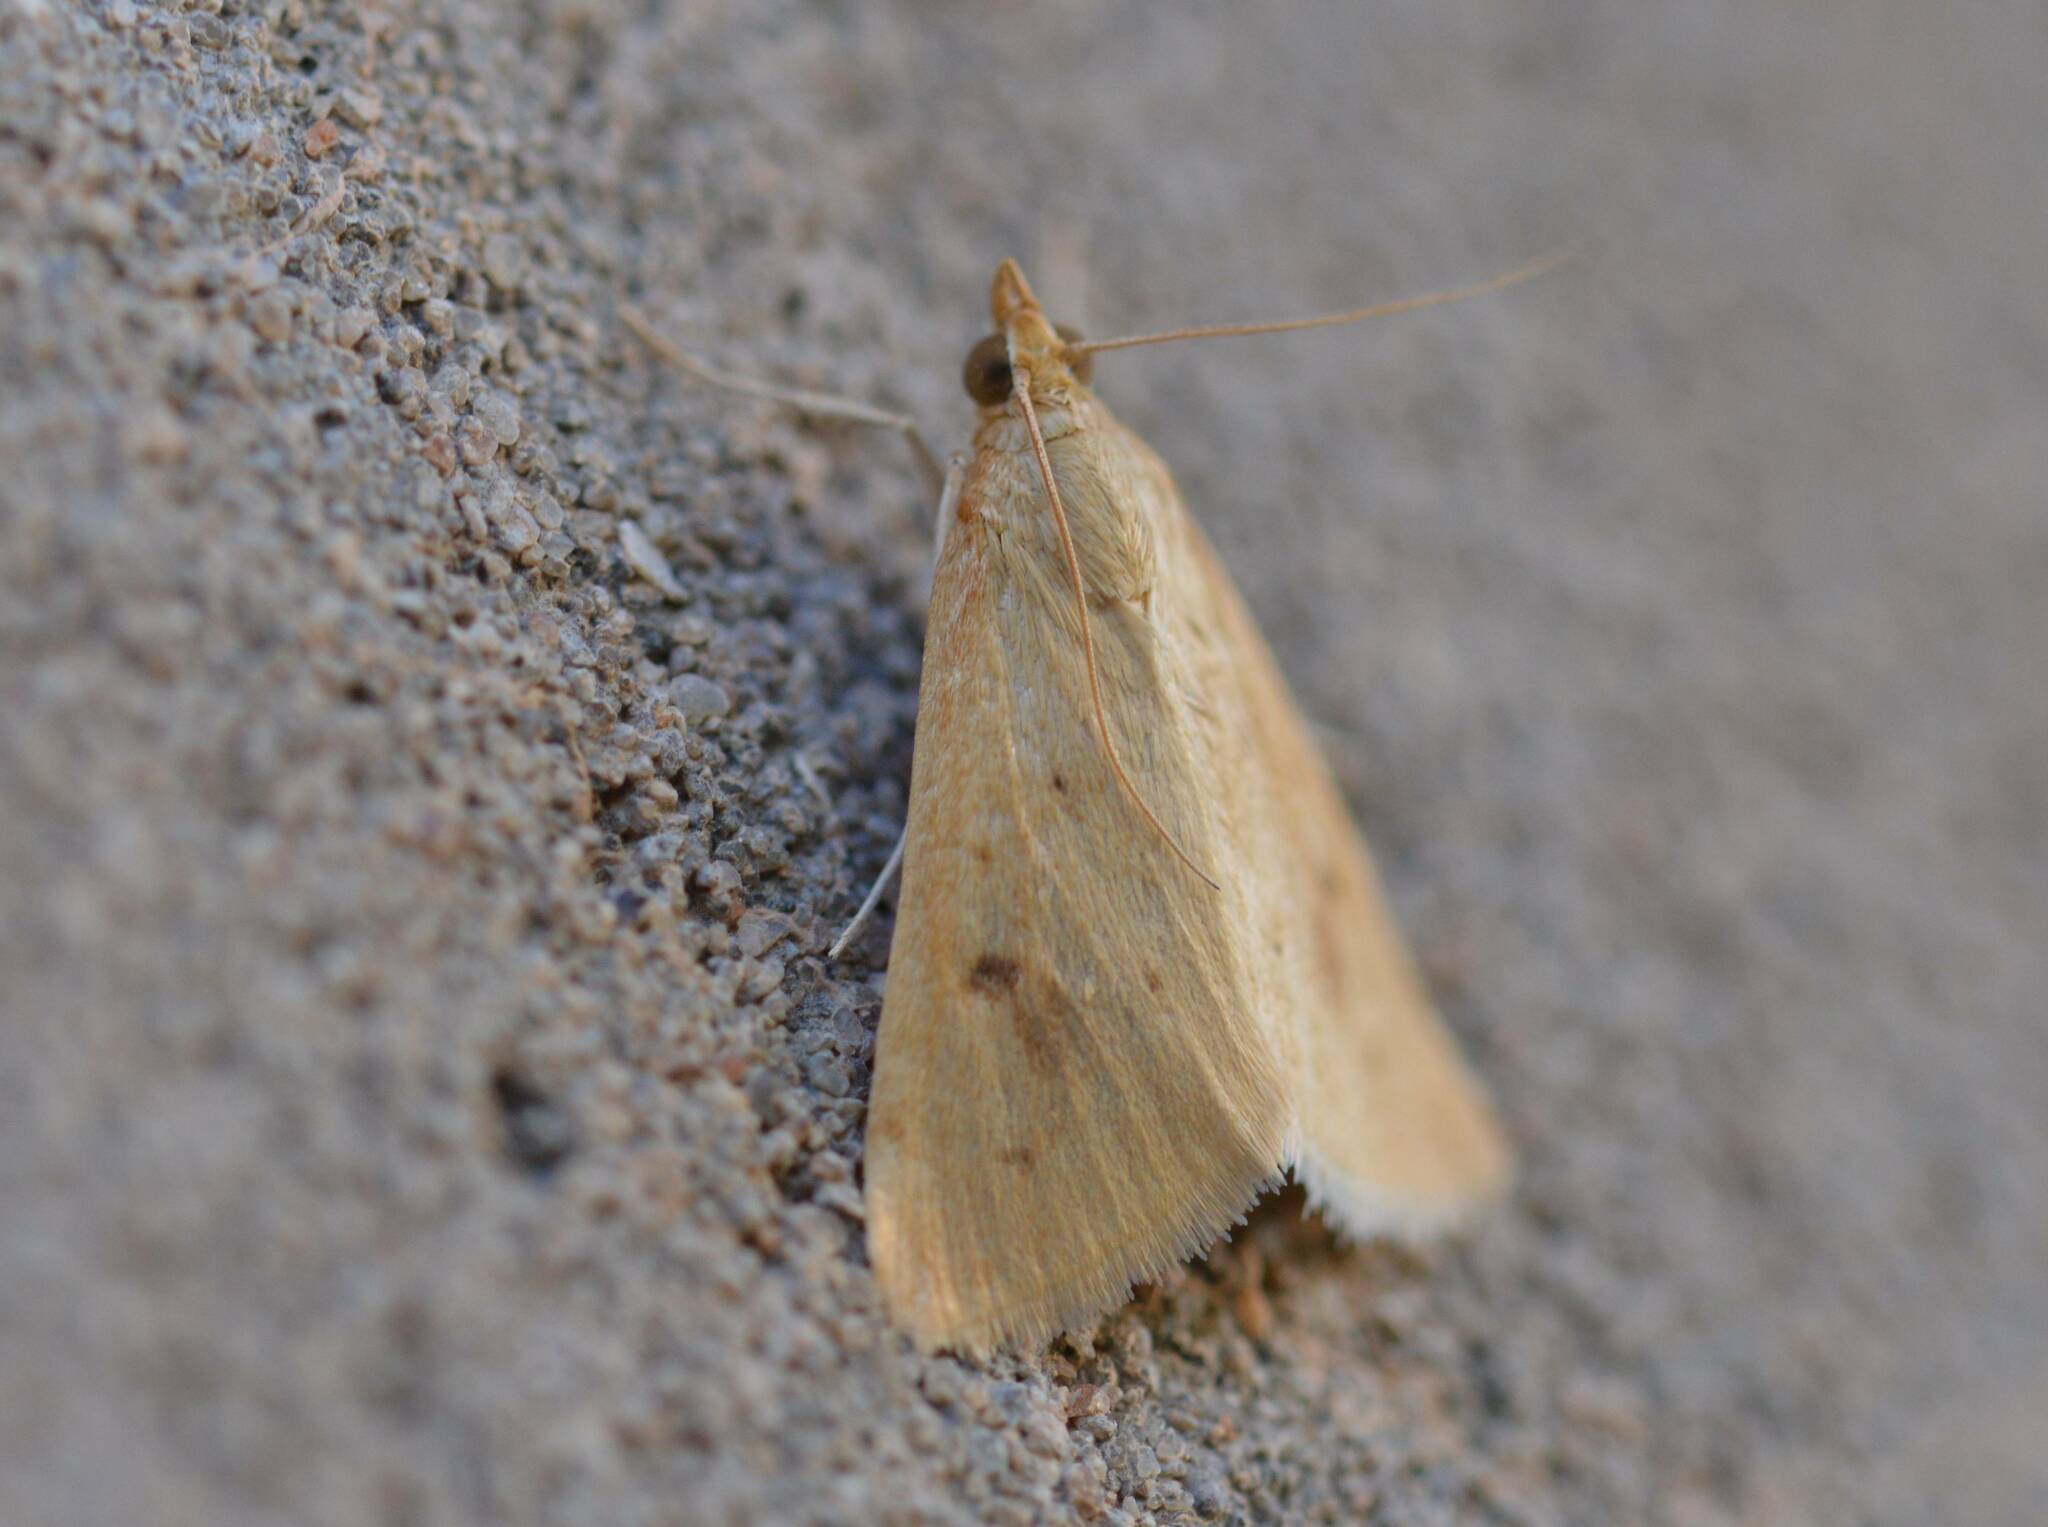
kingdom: Animalia
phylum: Arthropoda
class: Insecta
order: Lepidoptera
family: Crambidae
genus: Achyra
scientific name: Achyra nudalis
